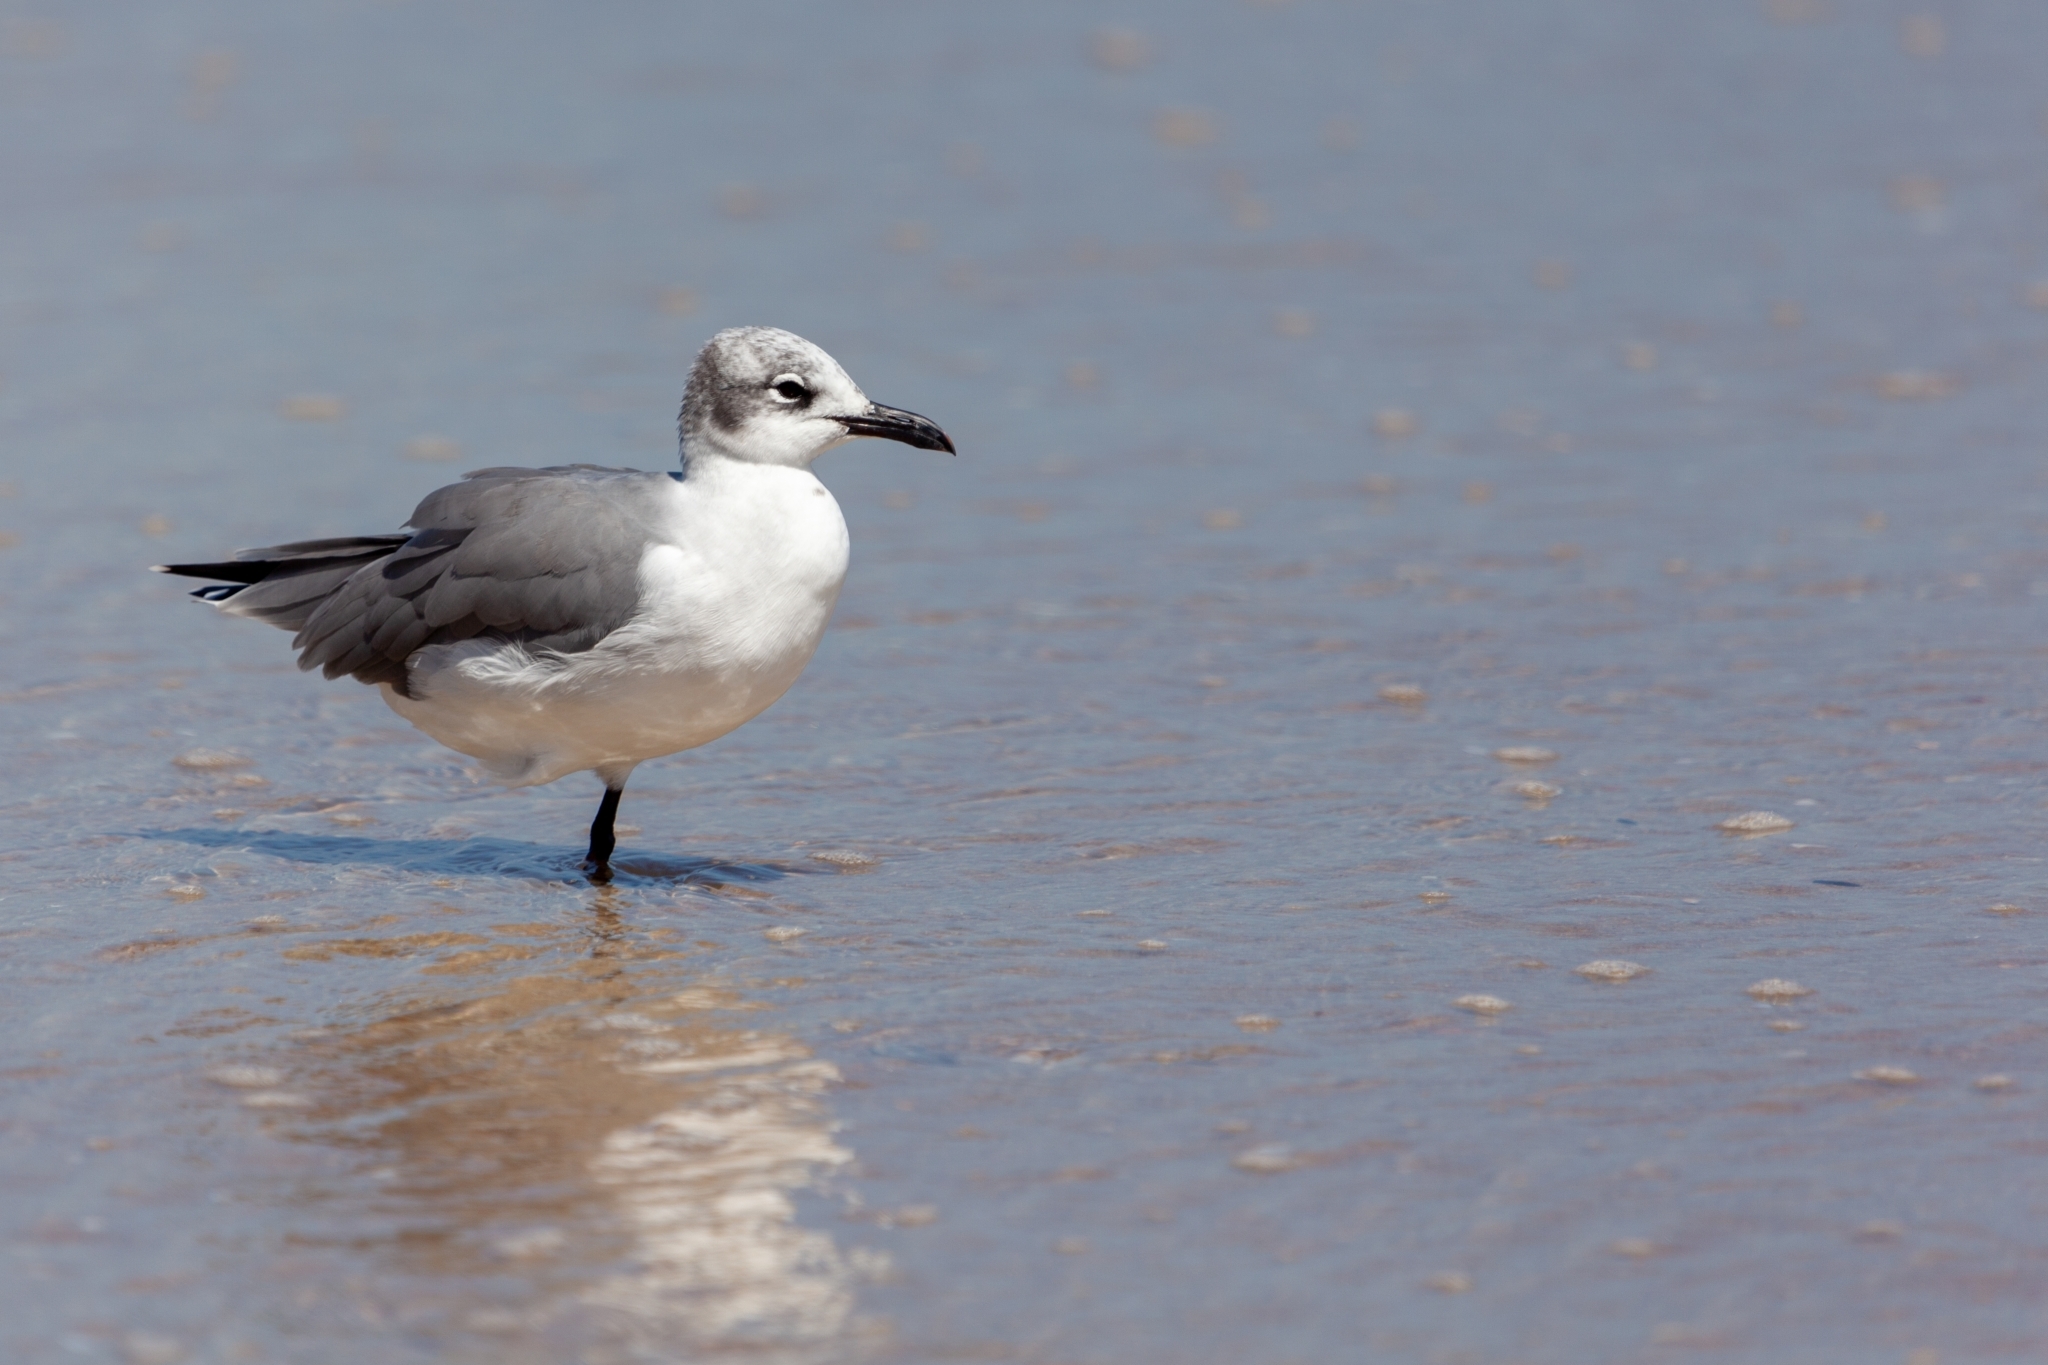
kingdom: Animalia
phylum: Chordata
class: Aves
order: Charadriiformes
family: Laridae
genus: Leucophaeus
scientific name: Leucophaeus atricilla
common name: Laughing gull
